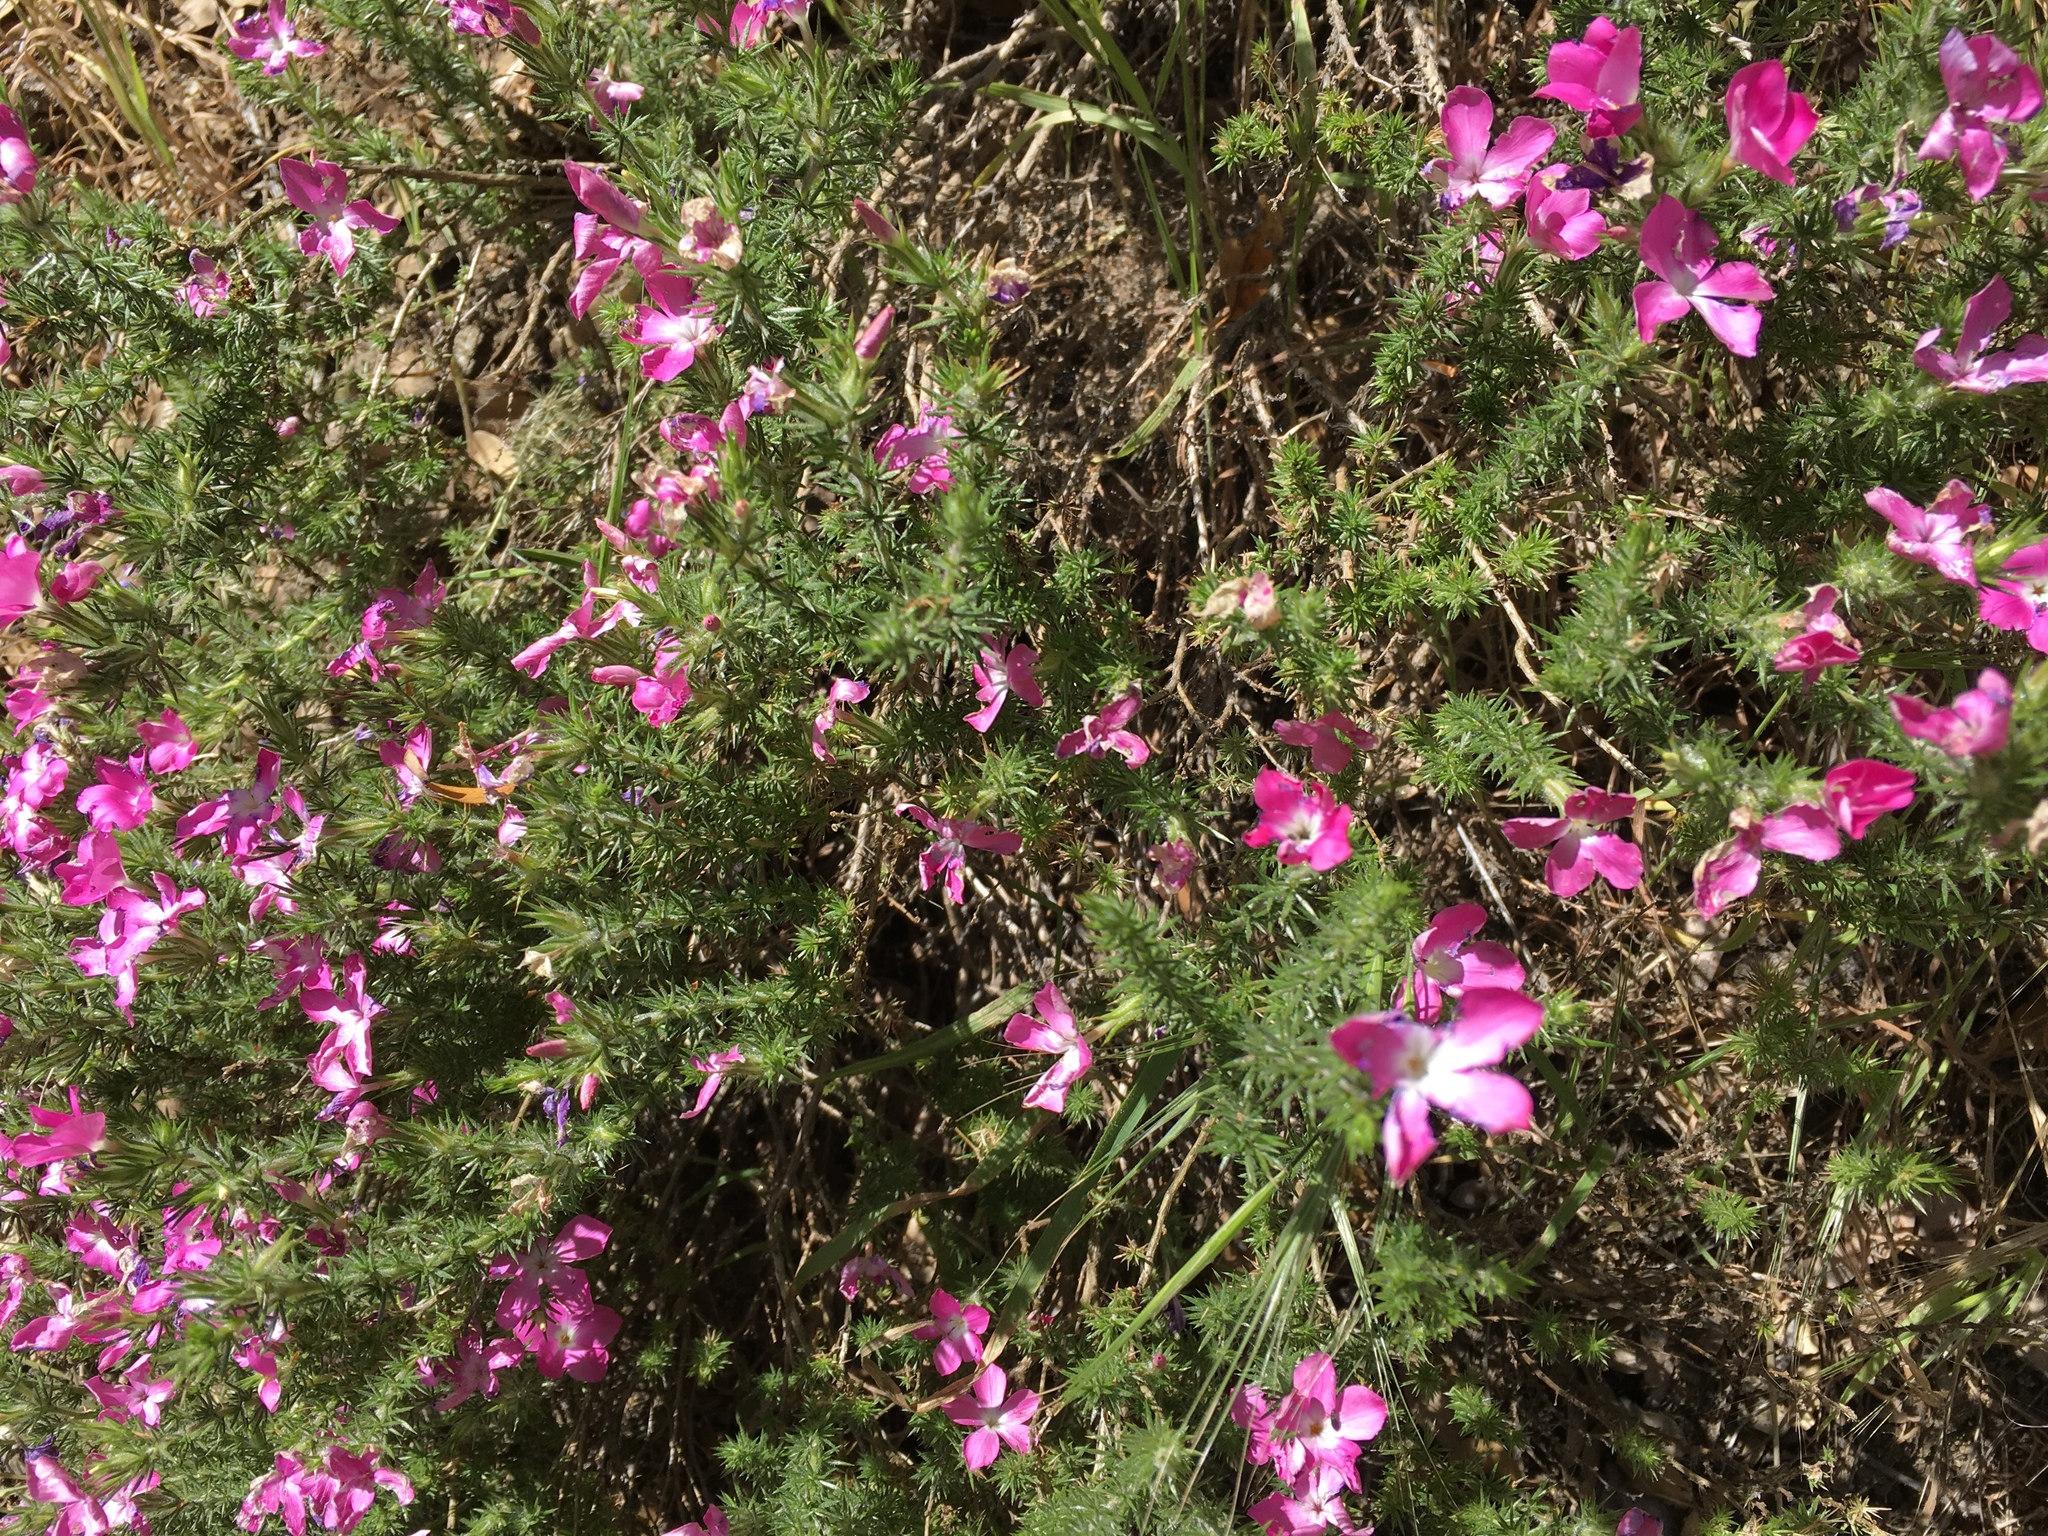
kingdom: Plantae
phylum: Tracheophyta
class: Magnoliopsida
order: Ericales
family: Polemoniaceae
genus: Linanthus
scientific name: Linanthus californicus
